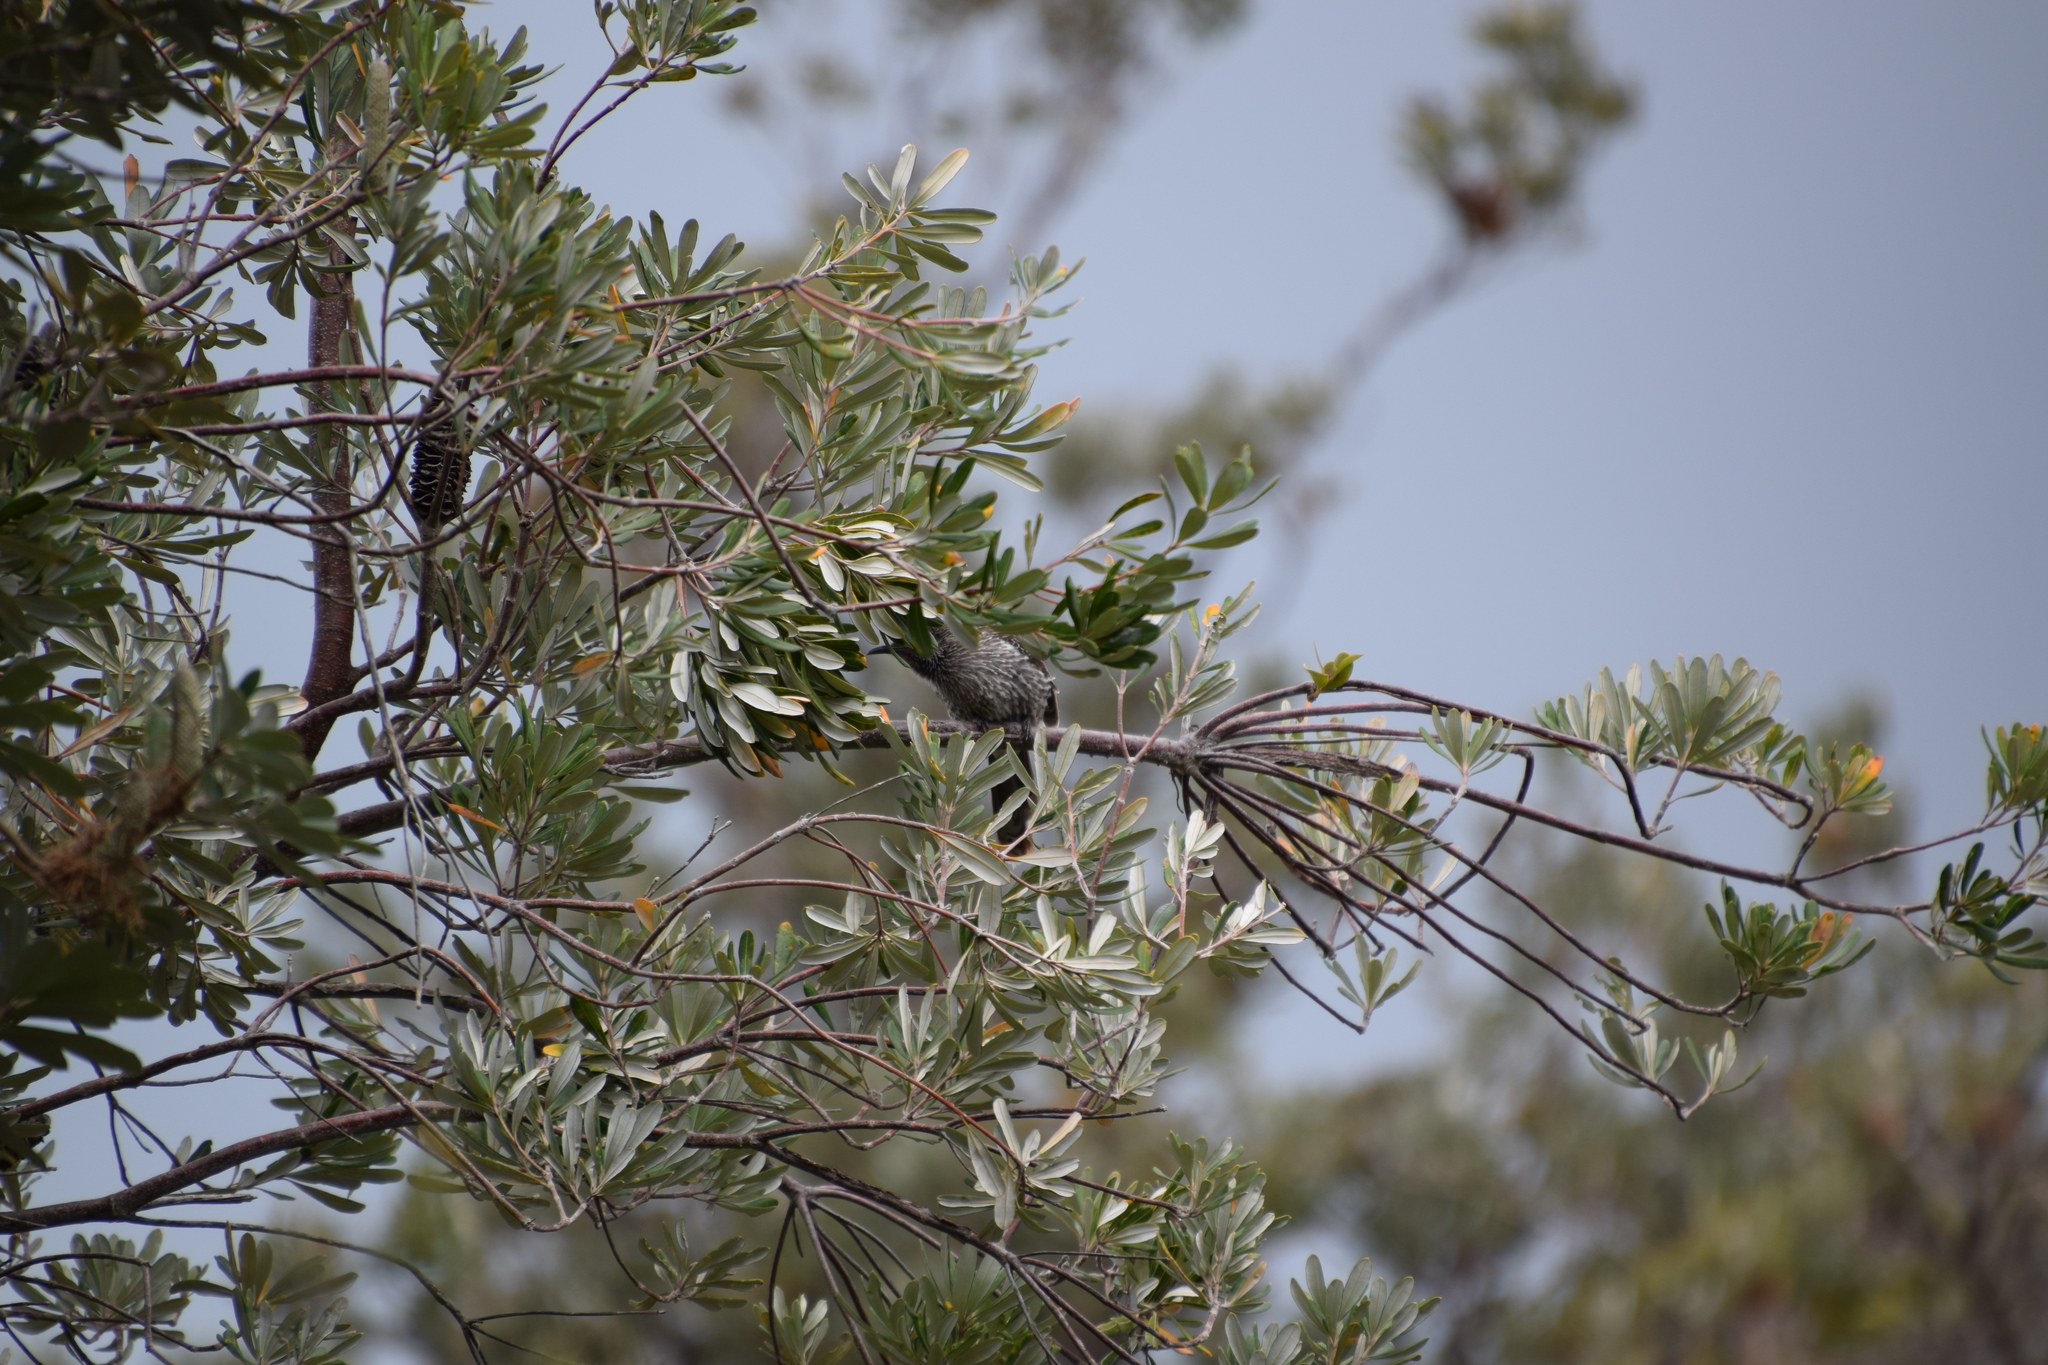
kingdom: Animalia
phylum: Chordata
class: Aves
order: Passeriformes
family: Meliphagidae
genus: Anthochaera
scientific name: Anthochaera chrysoptera
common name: Little wattlebird
